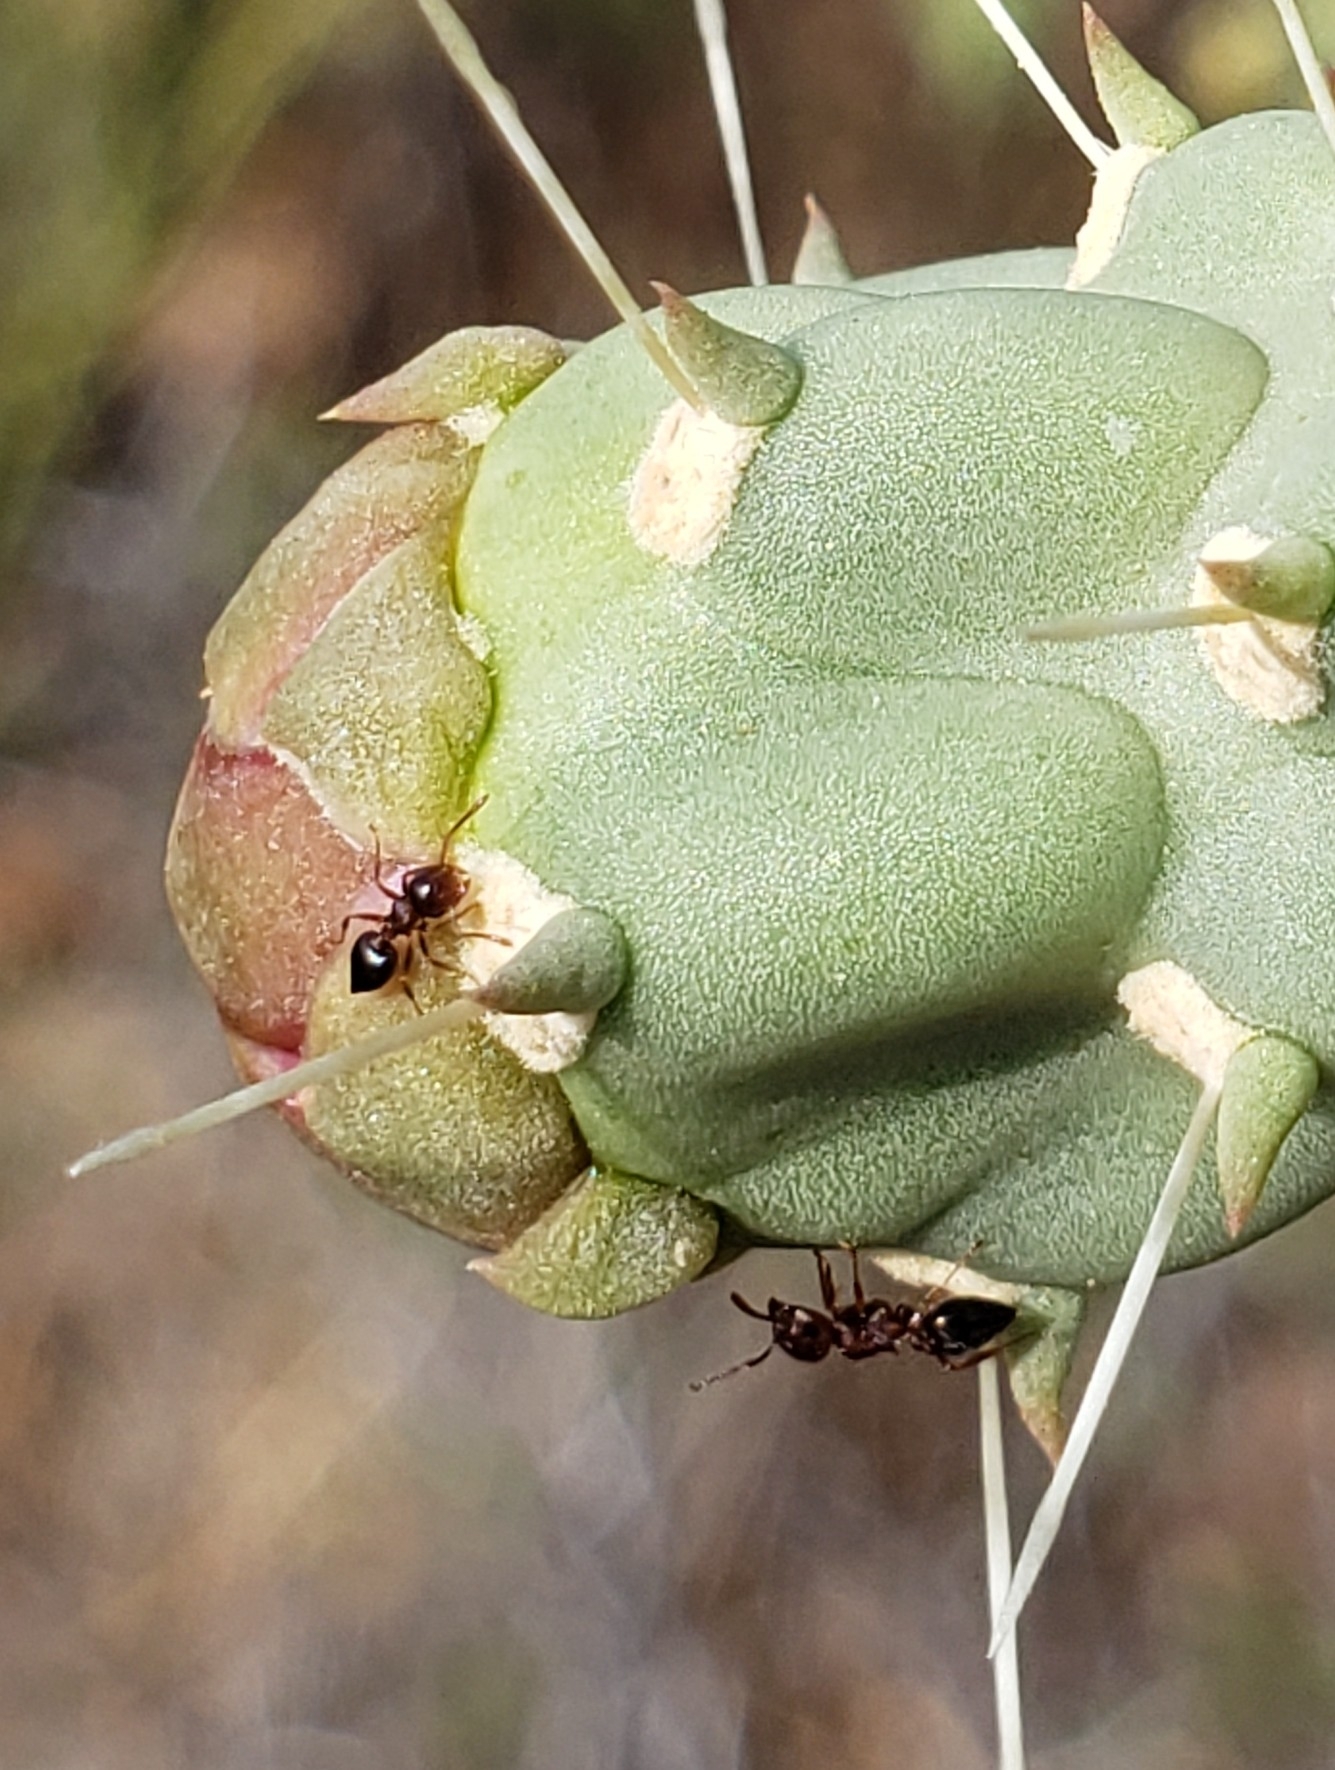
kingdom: Animalia
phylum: Arthropoda
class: Insecta
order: Hymenoptera
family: Formicidae
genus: Crematogaster
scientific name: Crematogaster
